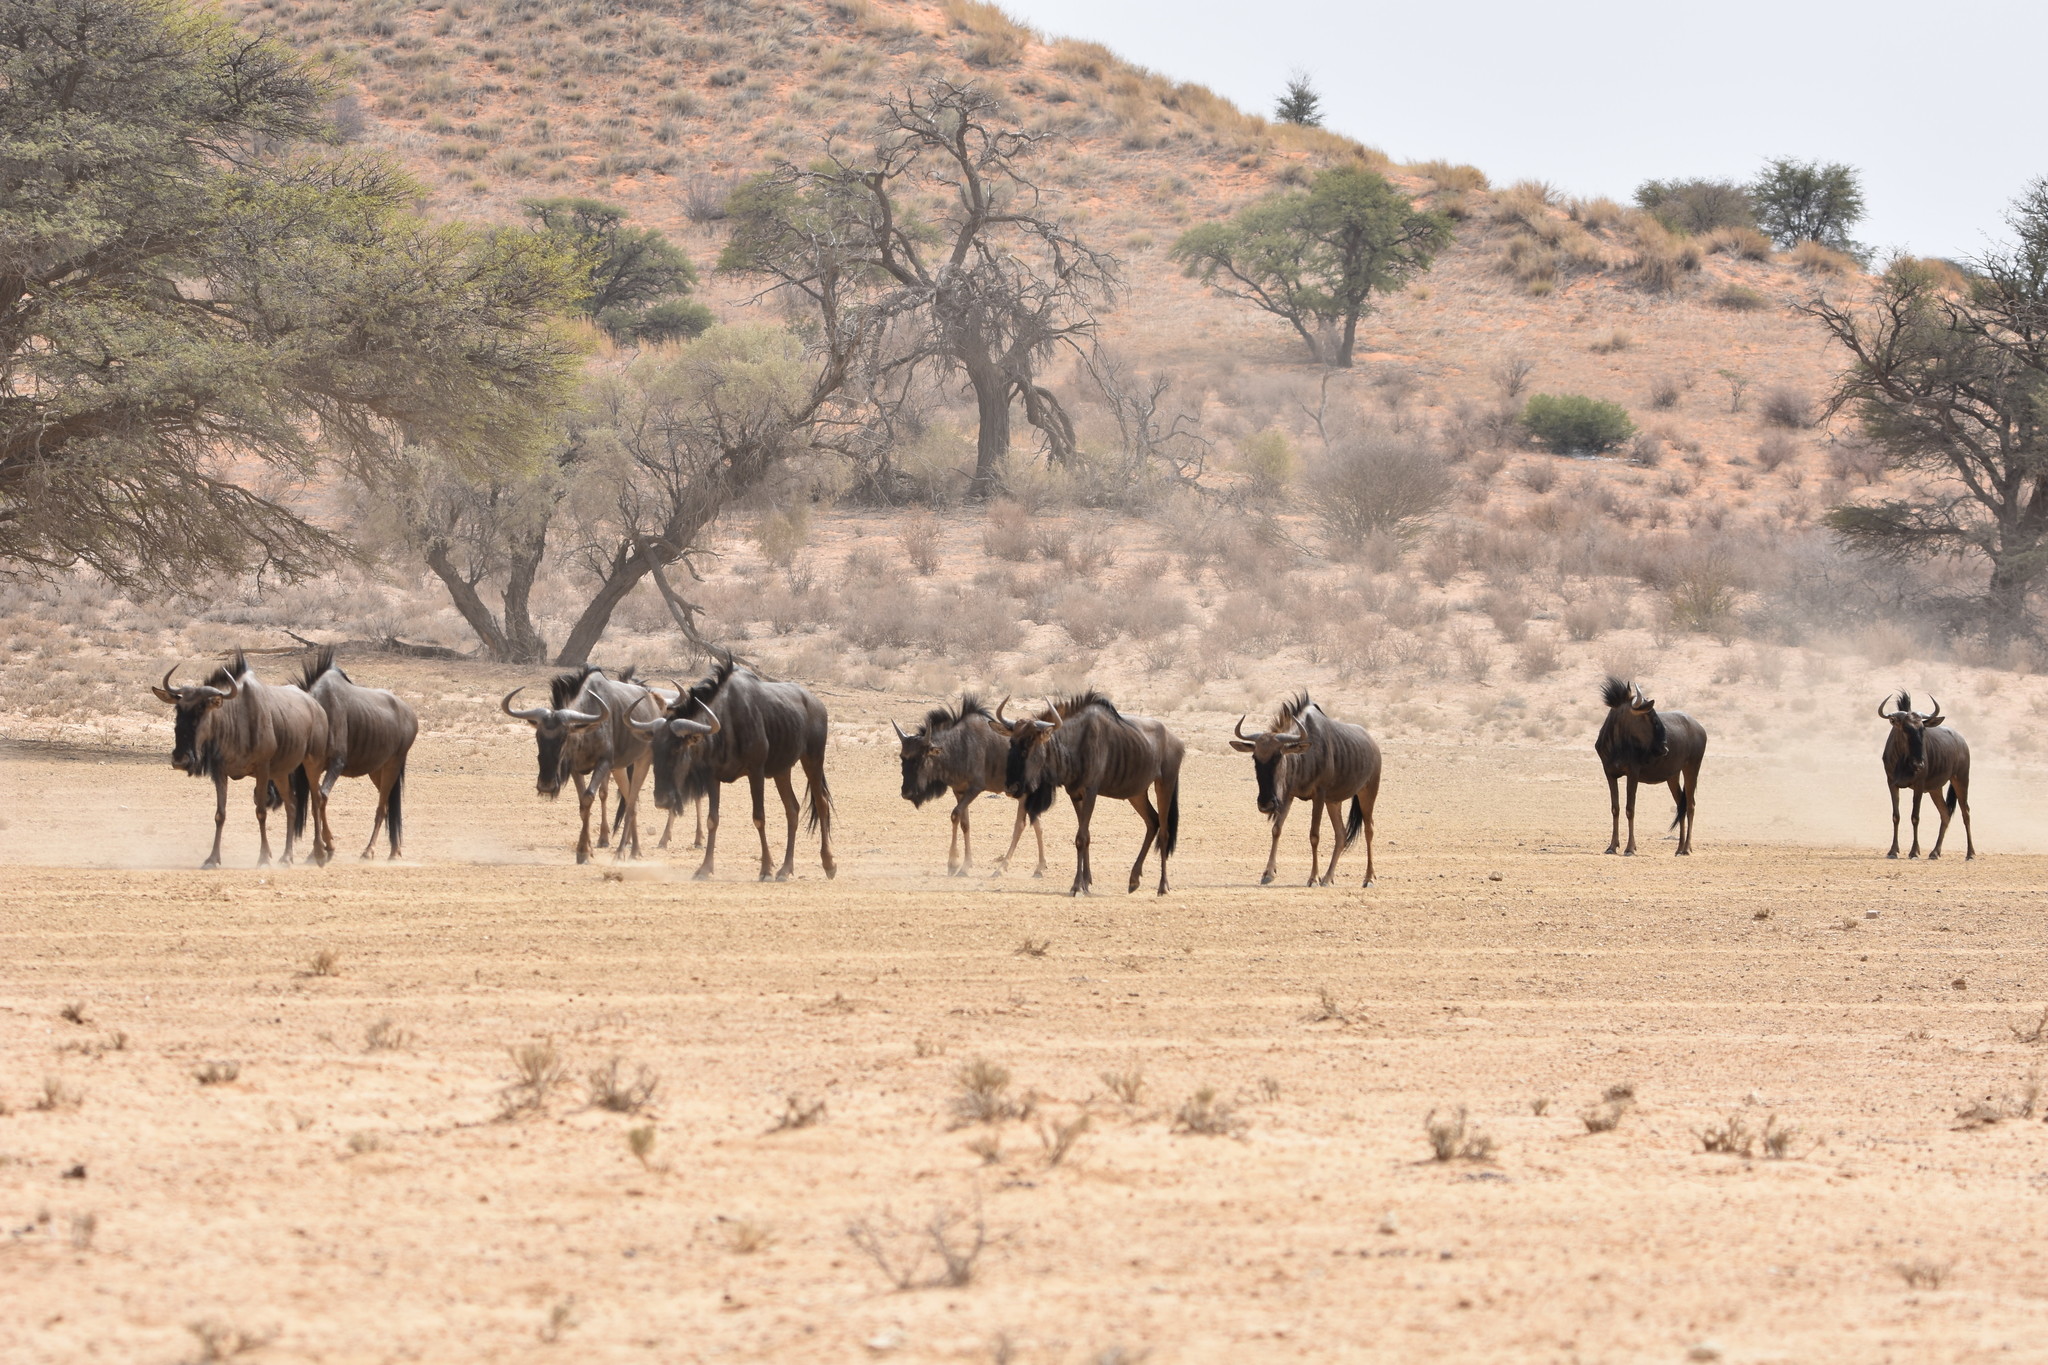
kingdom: Animalia
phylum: Chordata
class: Mammalia
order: Artiodactyla
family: Bovidae
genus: Connochaetes
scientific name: Connochaetes taurinus
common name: Blue wildebeest
